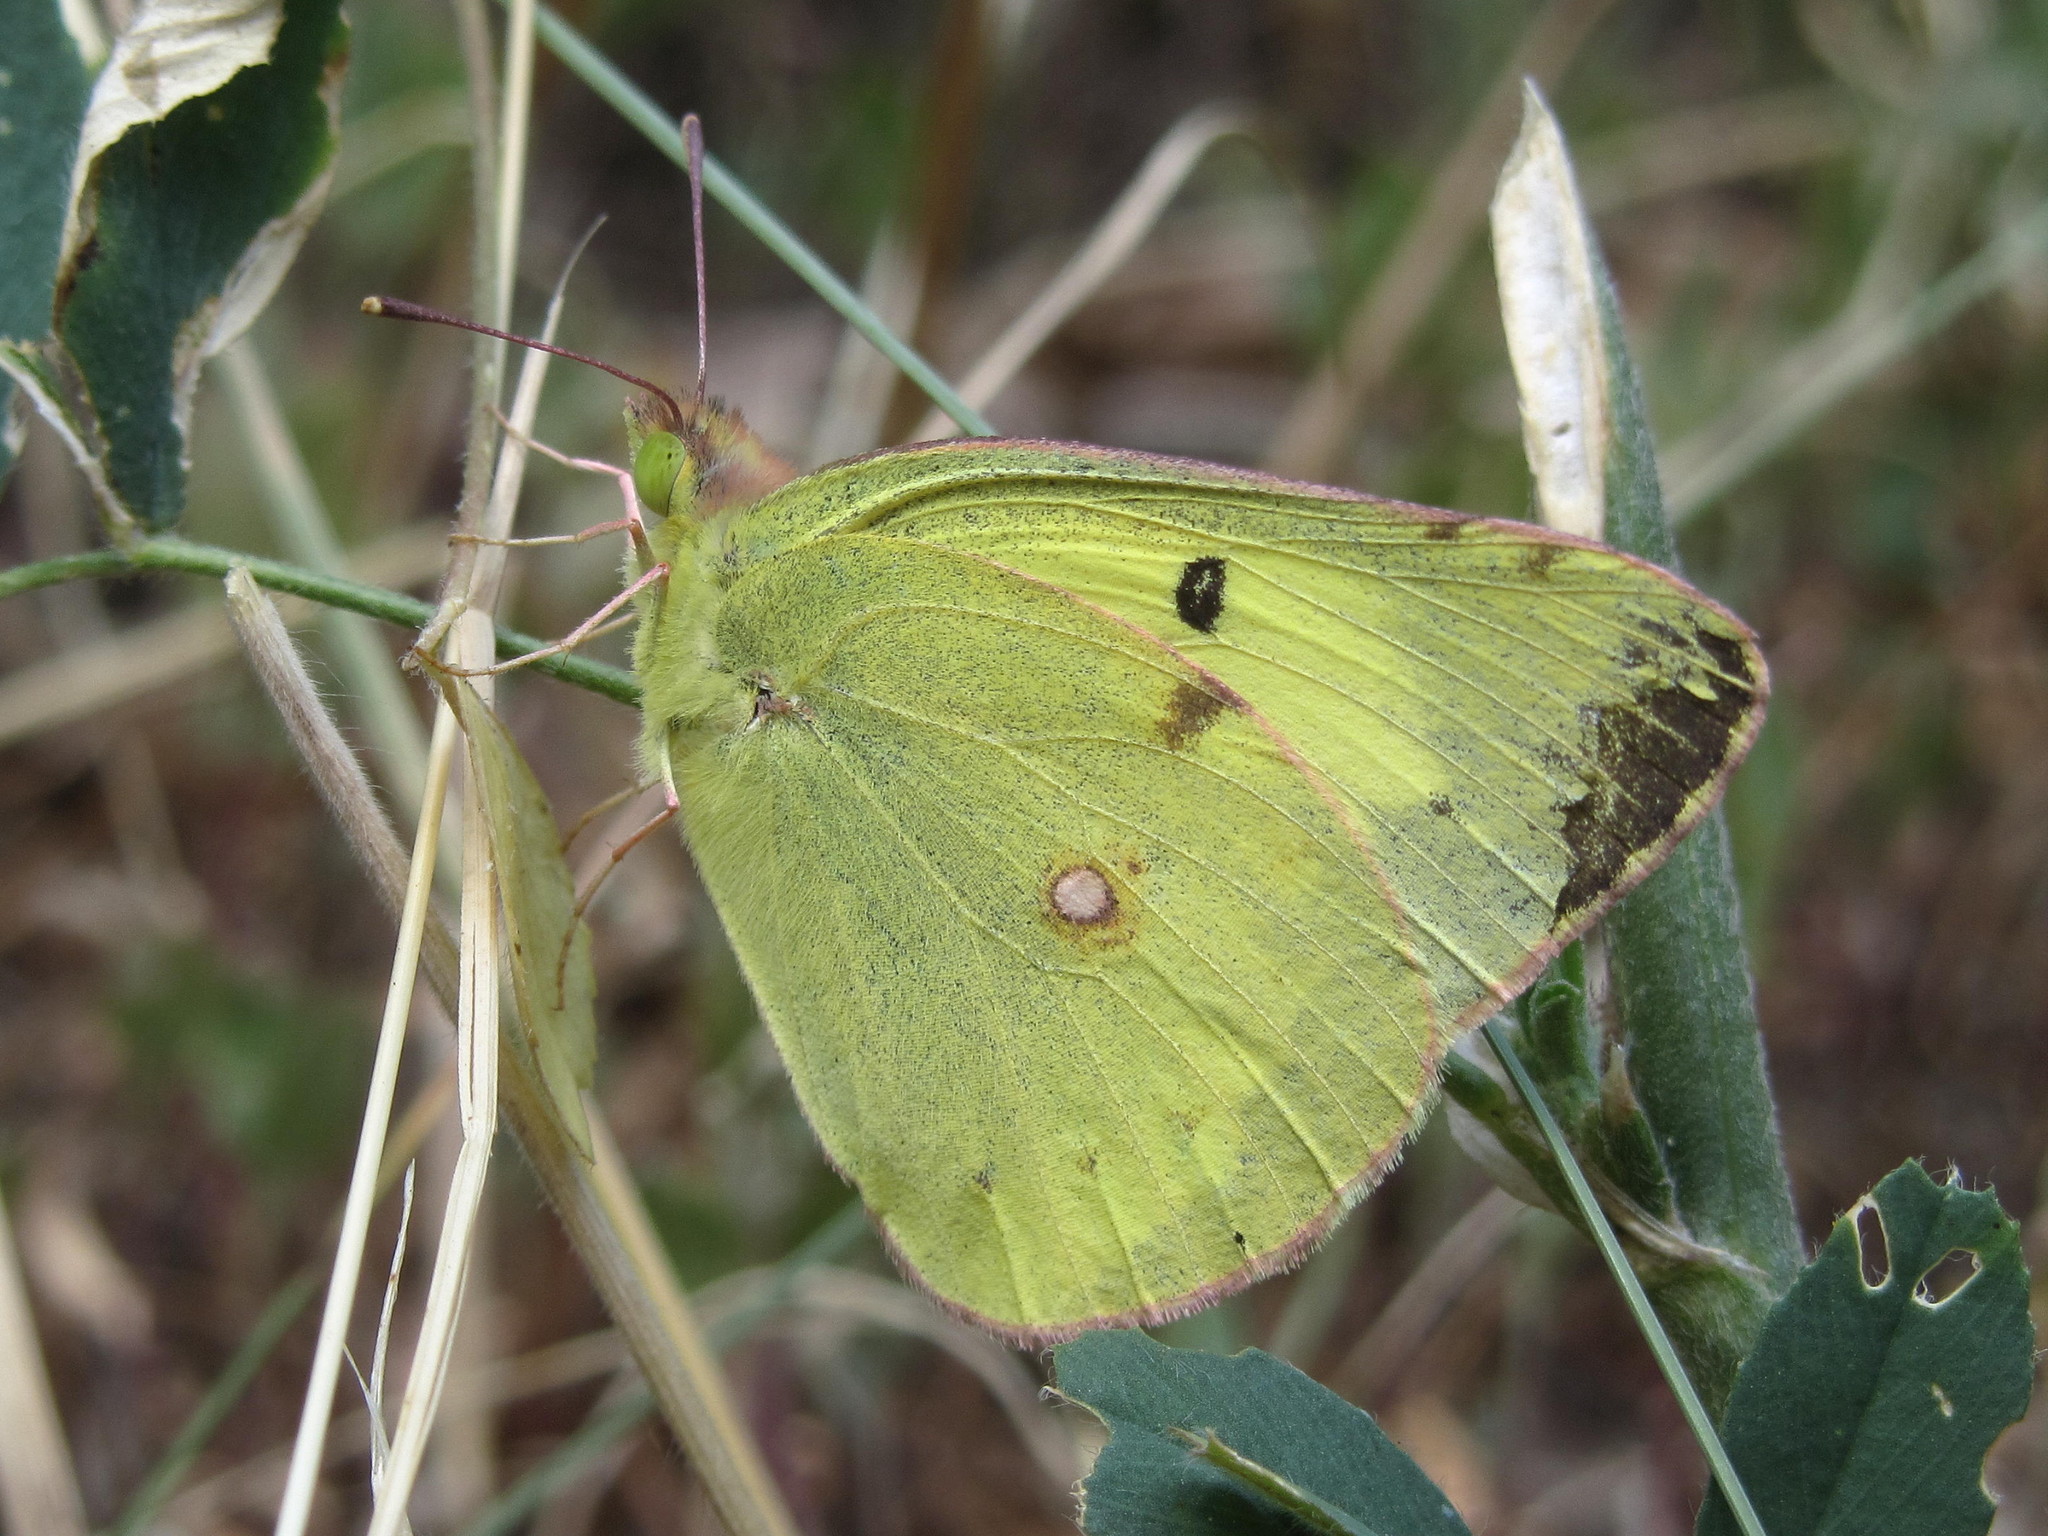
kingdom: Animalia
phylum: Arthropoda
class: Insecta
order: Lepidoptera
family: Pieridae
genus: Colias
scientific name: Colias erate
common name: Eastern pale clouded yellow
